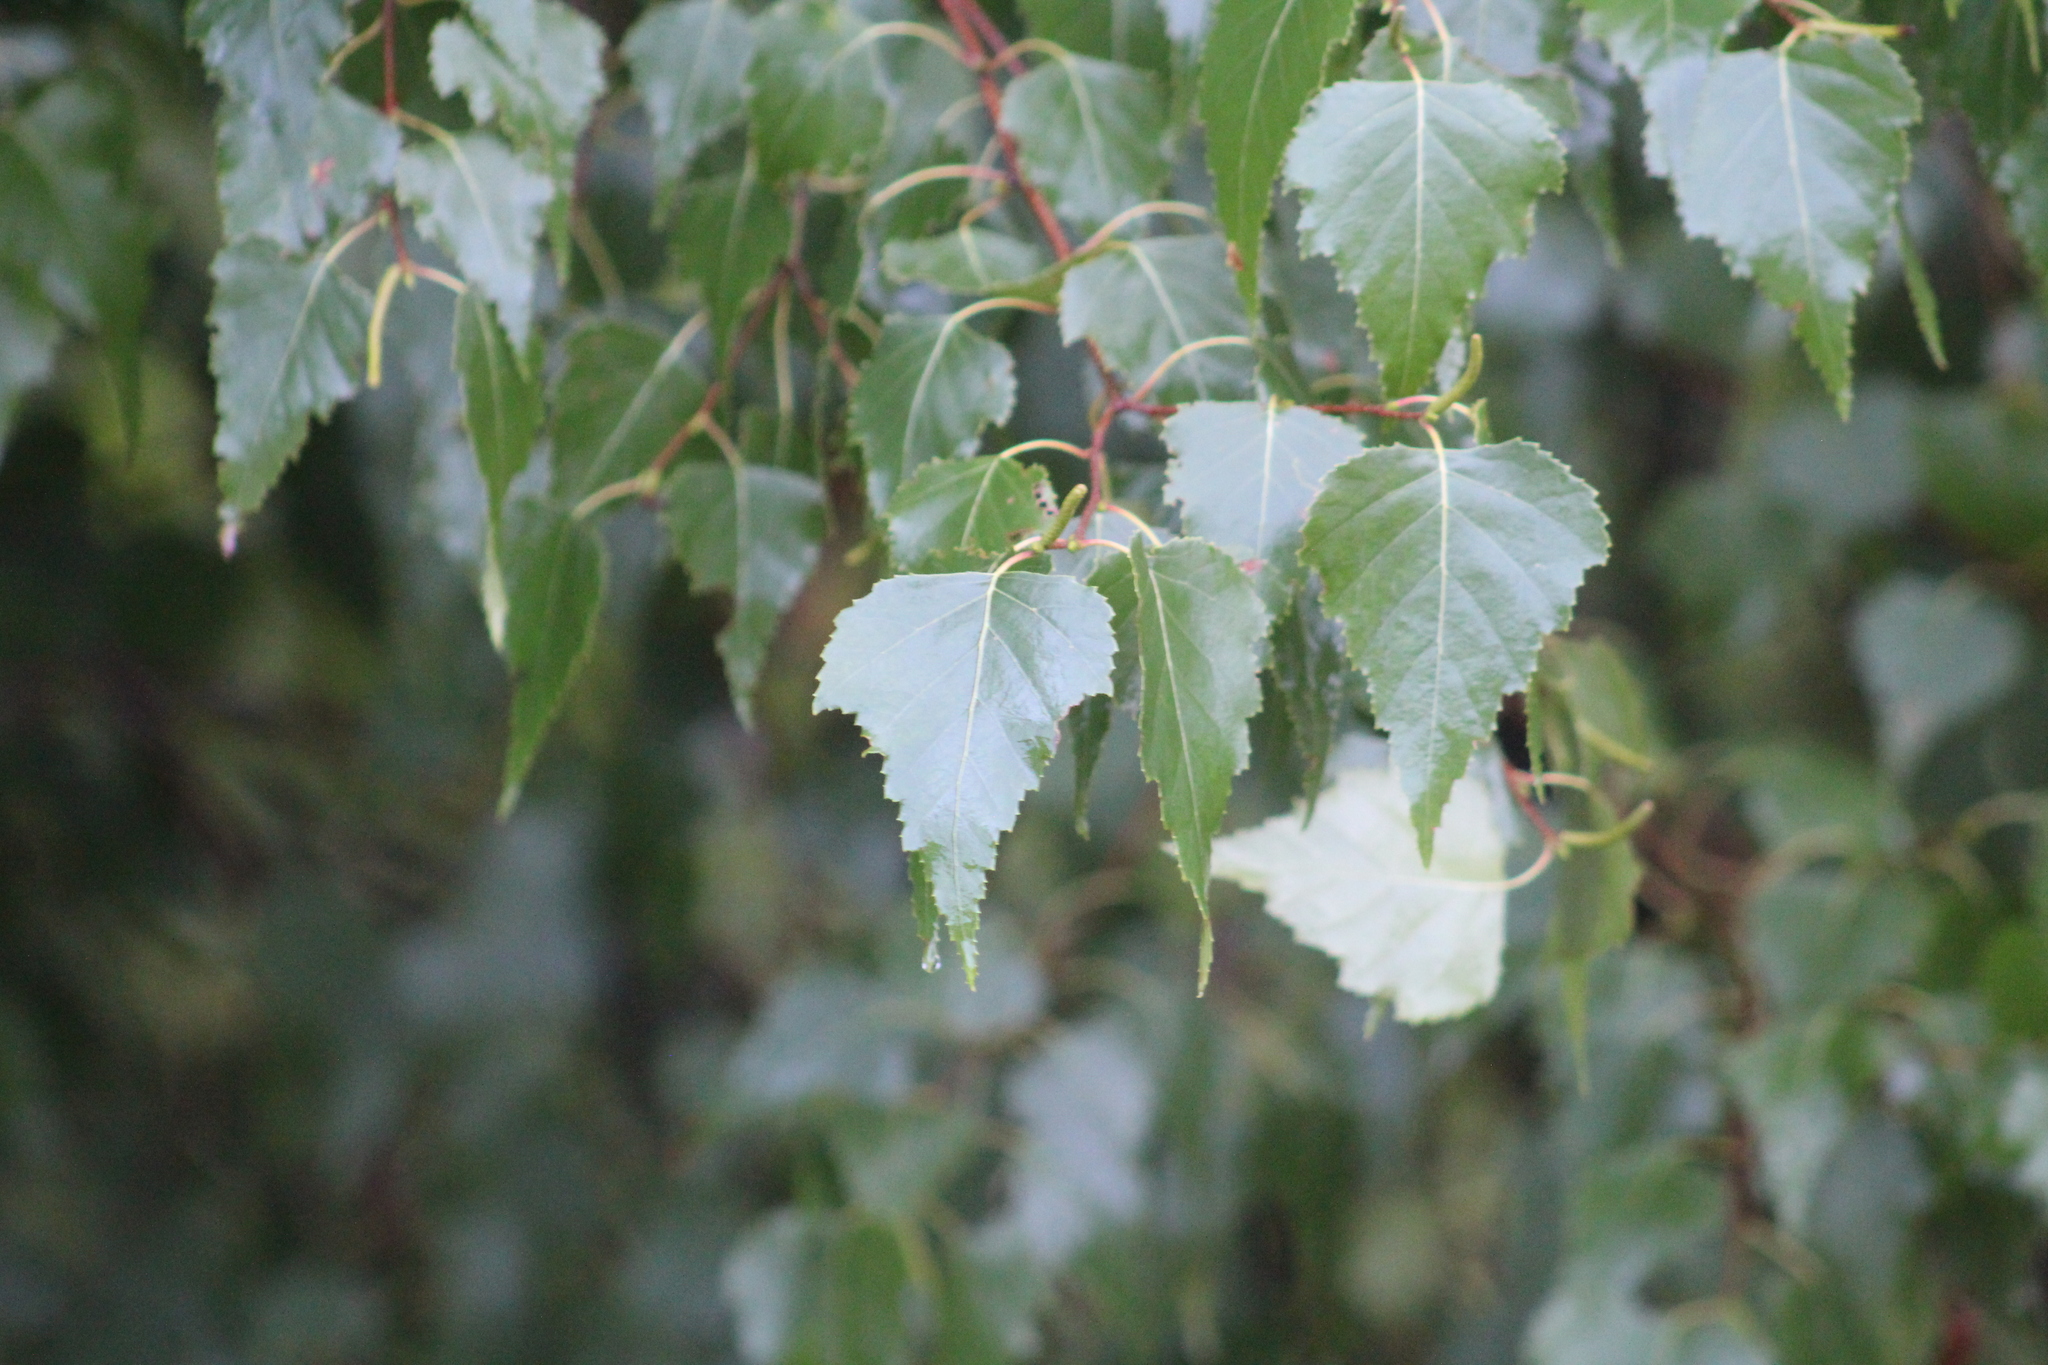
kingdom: Plantae
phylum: Tracheophyta
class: Magnoliopsida
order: Fagales
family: Betulaceae
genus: Betula
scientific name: Betula populifolia
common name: Fire birch
